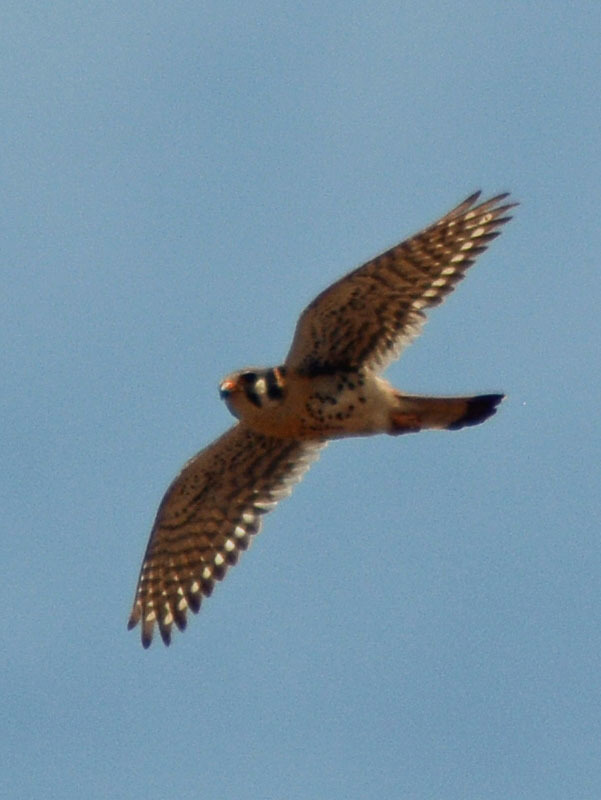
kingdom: Animalia
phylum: Chordata
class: Aves
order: Falconiformes
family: Falconidae
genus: Falco
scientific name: Falco sparverius
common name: American kestrel
